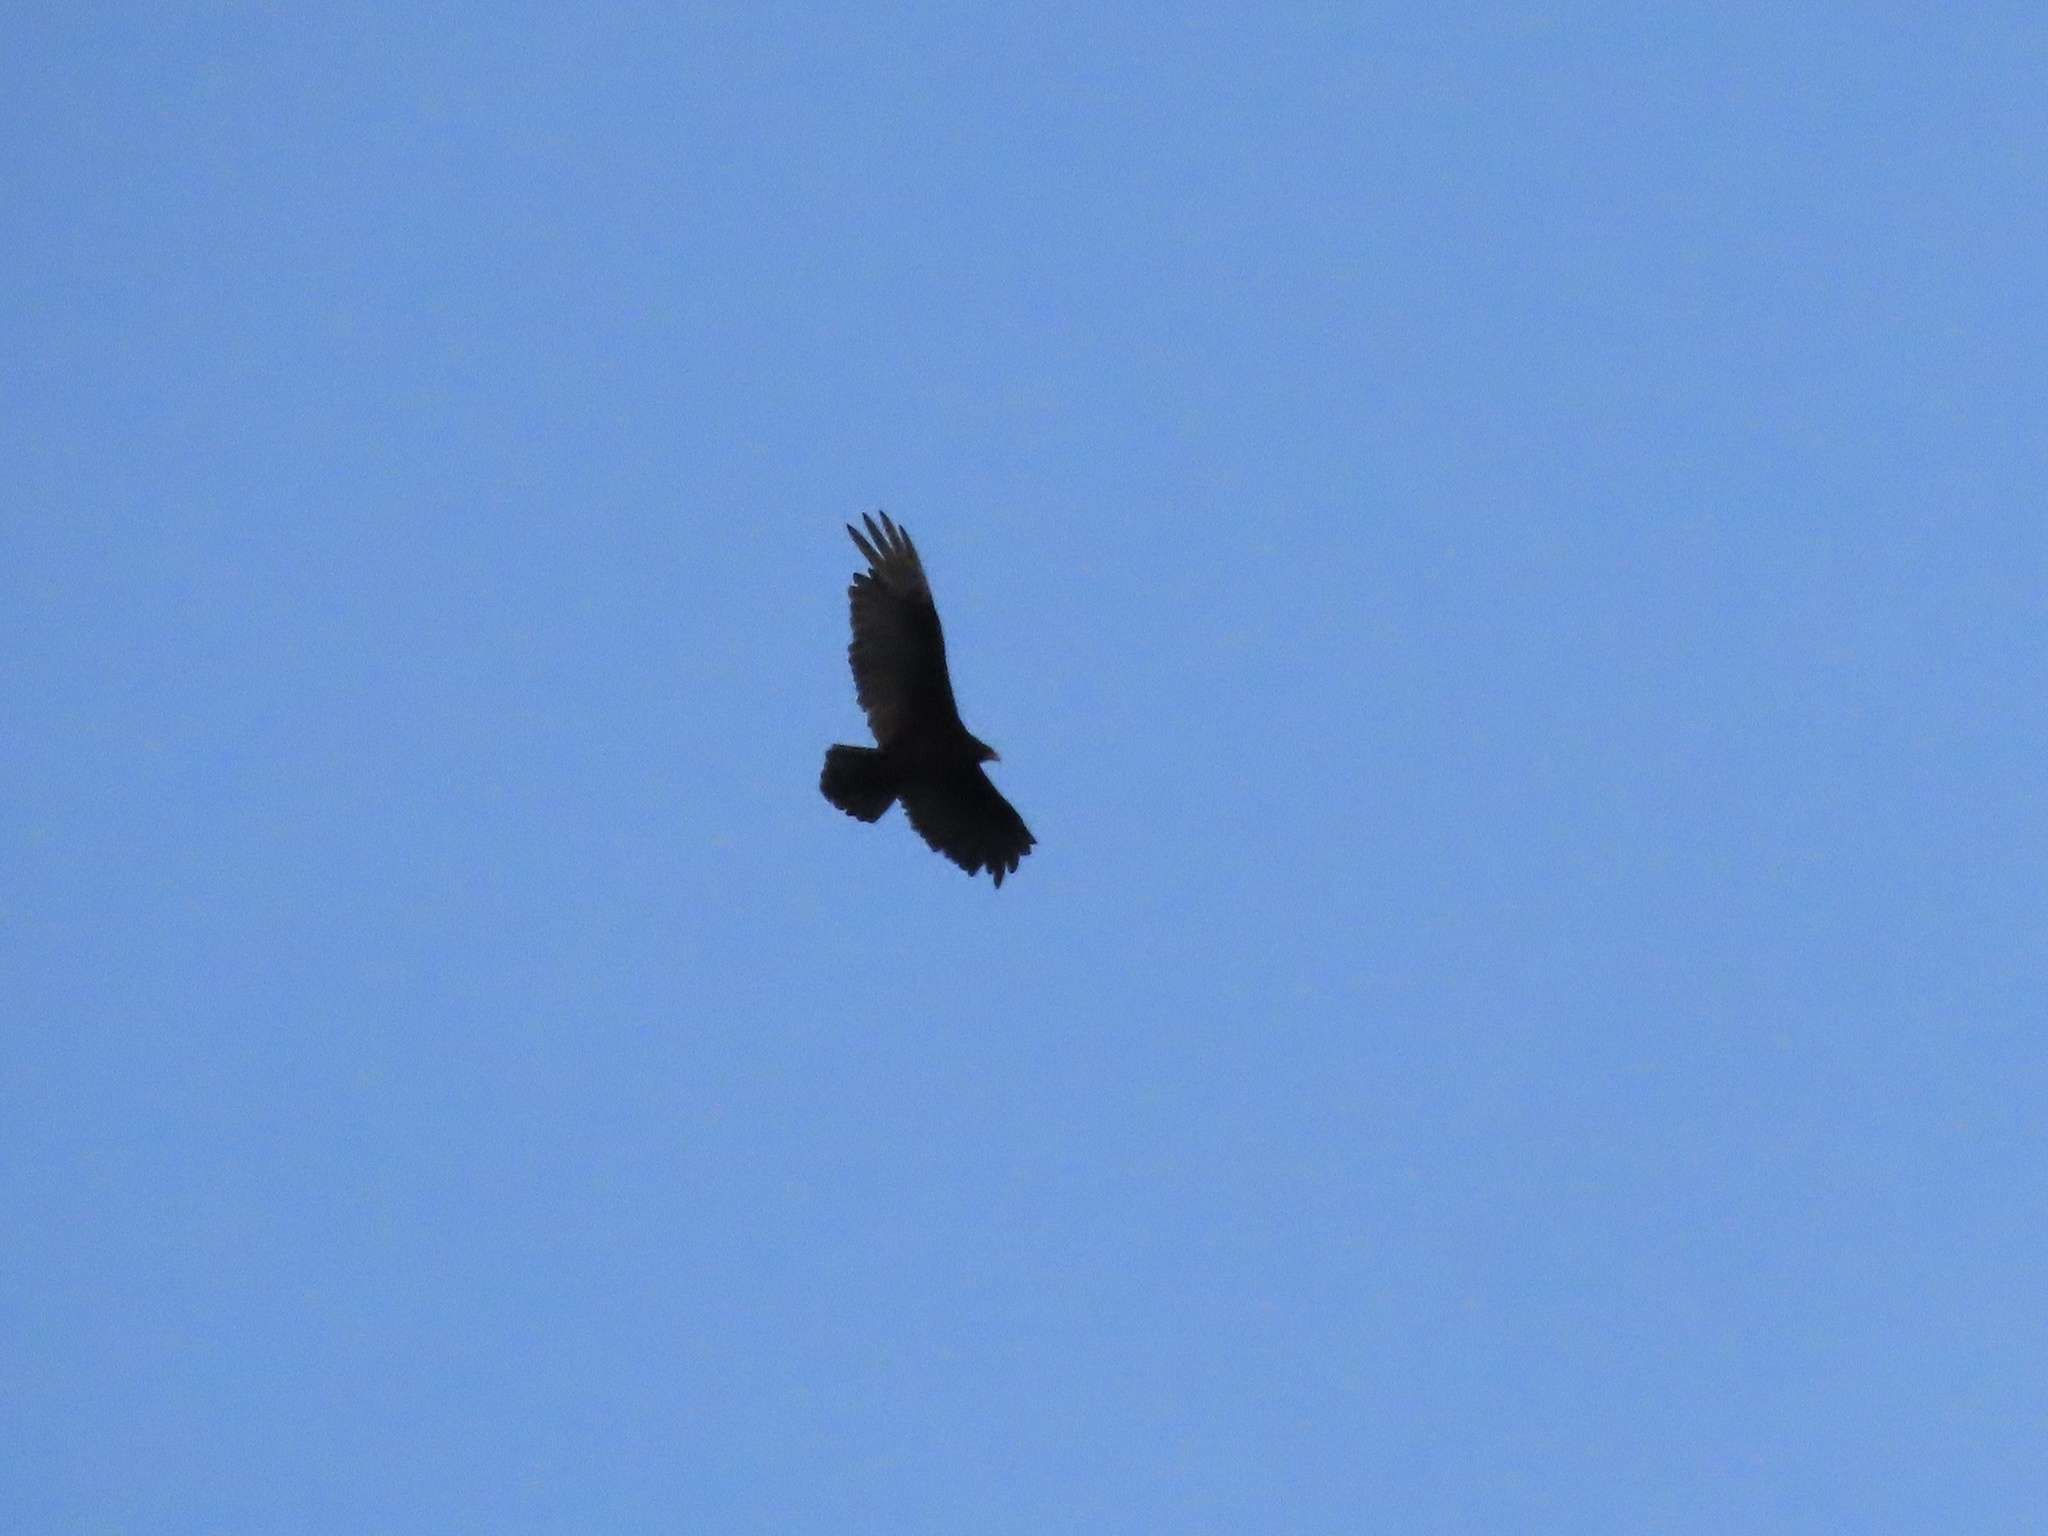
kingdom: Animalia
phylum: Chordata
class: Aves
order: Accipitriformes
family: Cathartidae
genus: Cathartes
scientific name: Cathartes aura
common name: Turkey vulture
